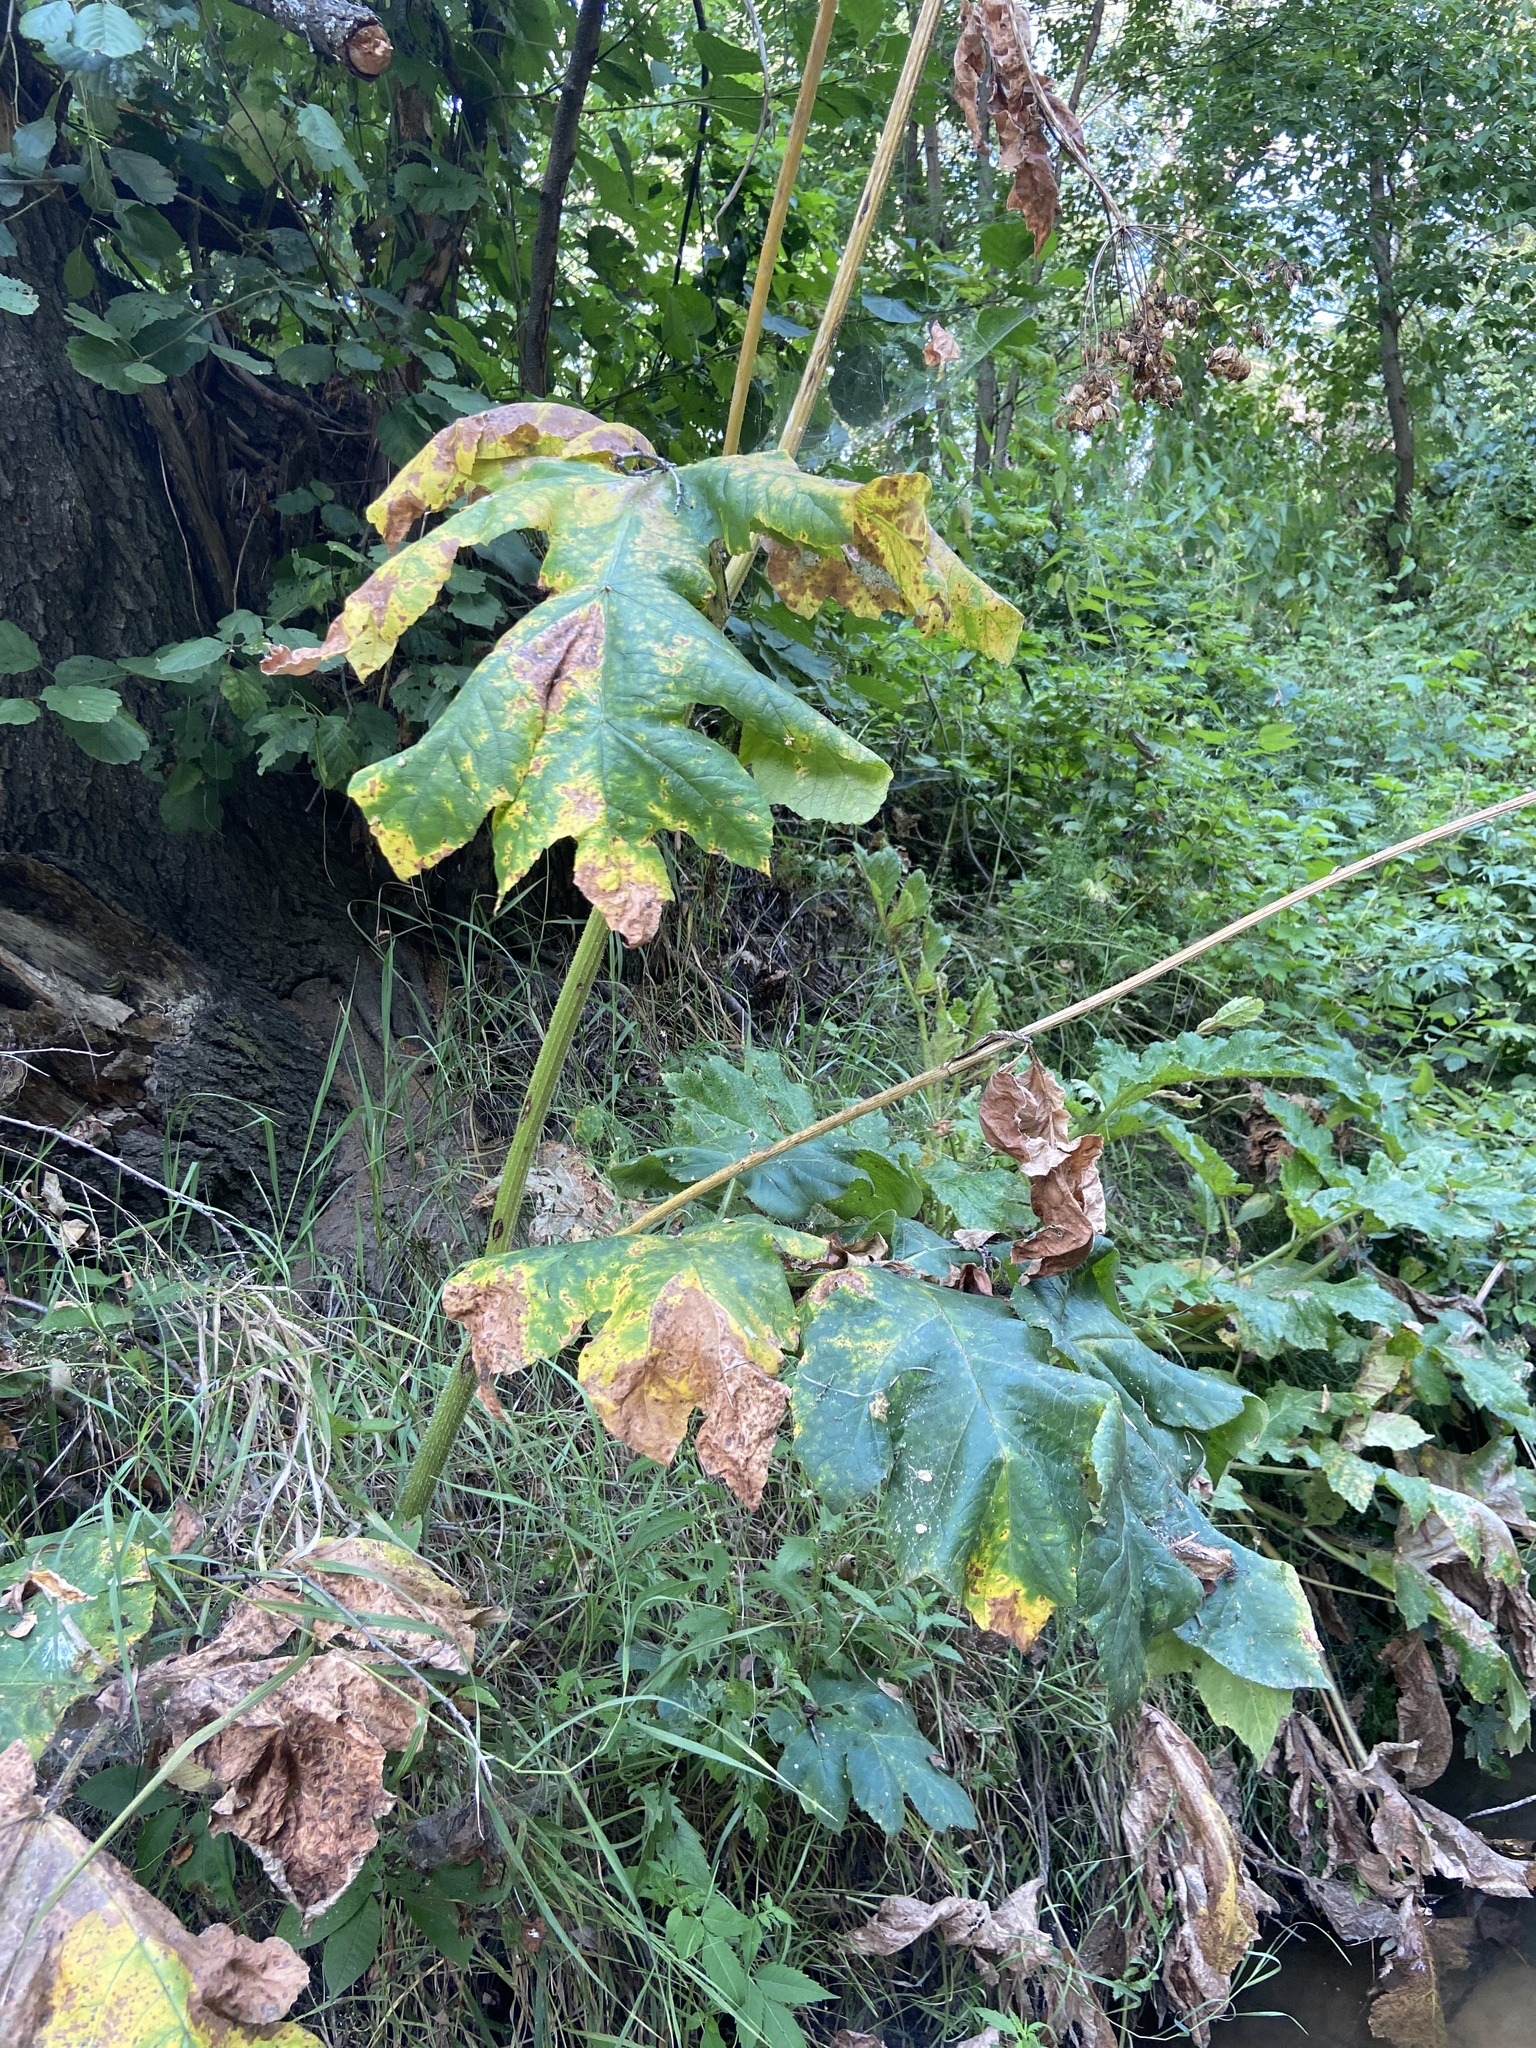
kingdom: Plantae
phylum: Tracheophyta
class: Magnoliopsida
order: Apiales
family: Apiaceae
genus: Heracleum
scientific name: Heracleum sosnowskyi
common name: Sosnowsky's hogweed
